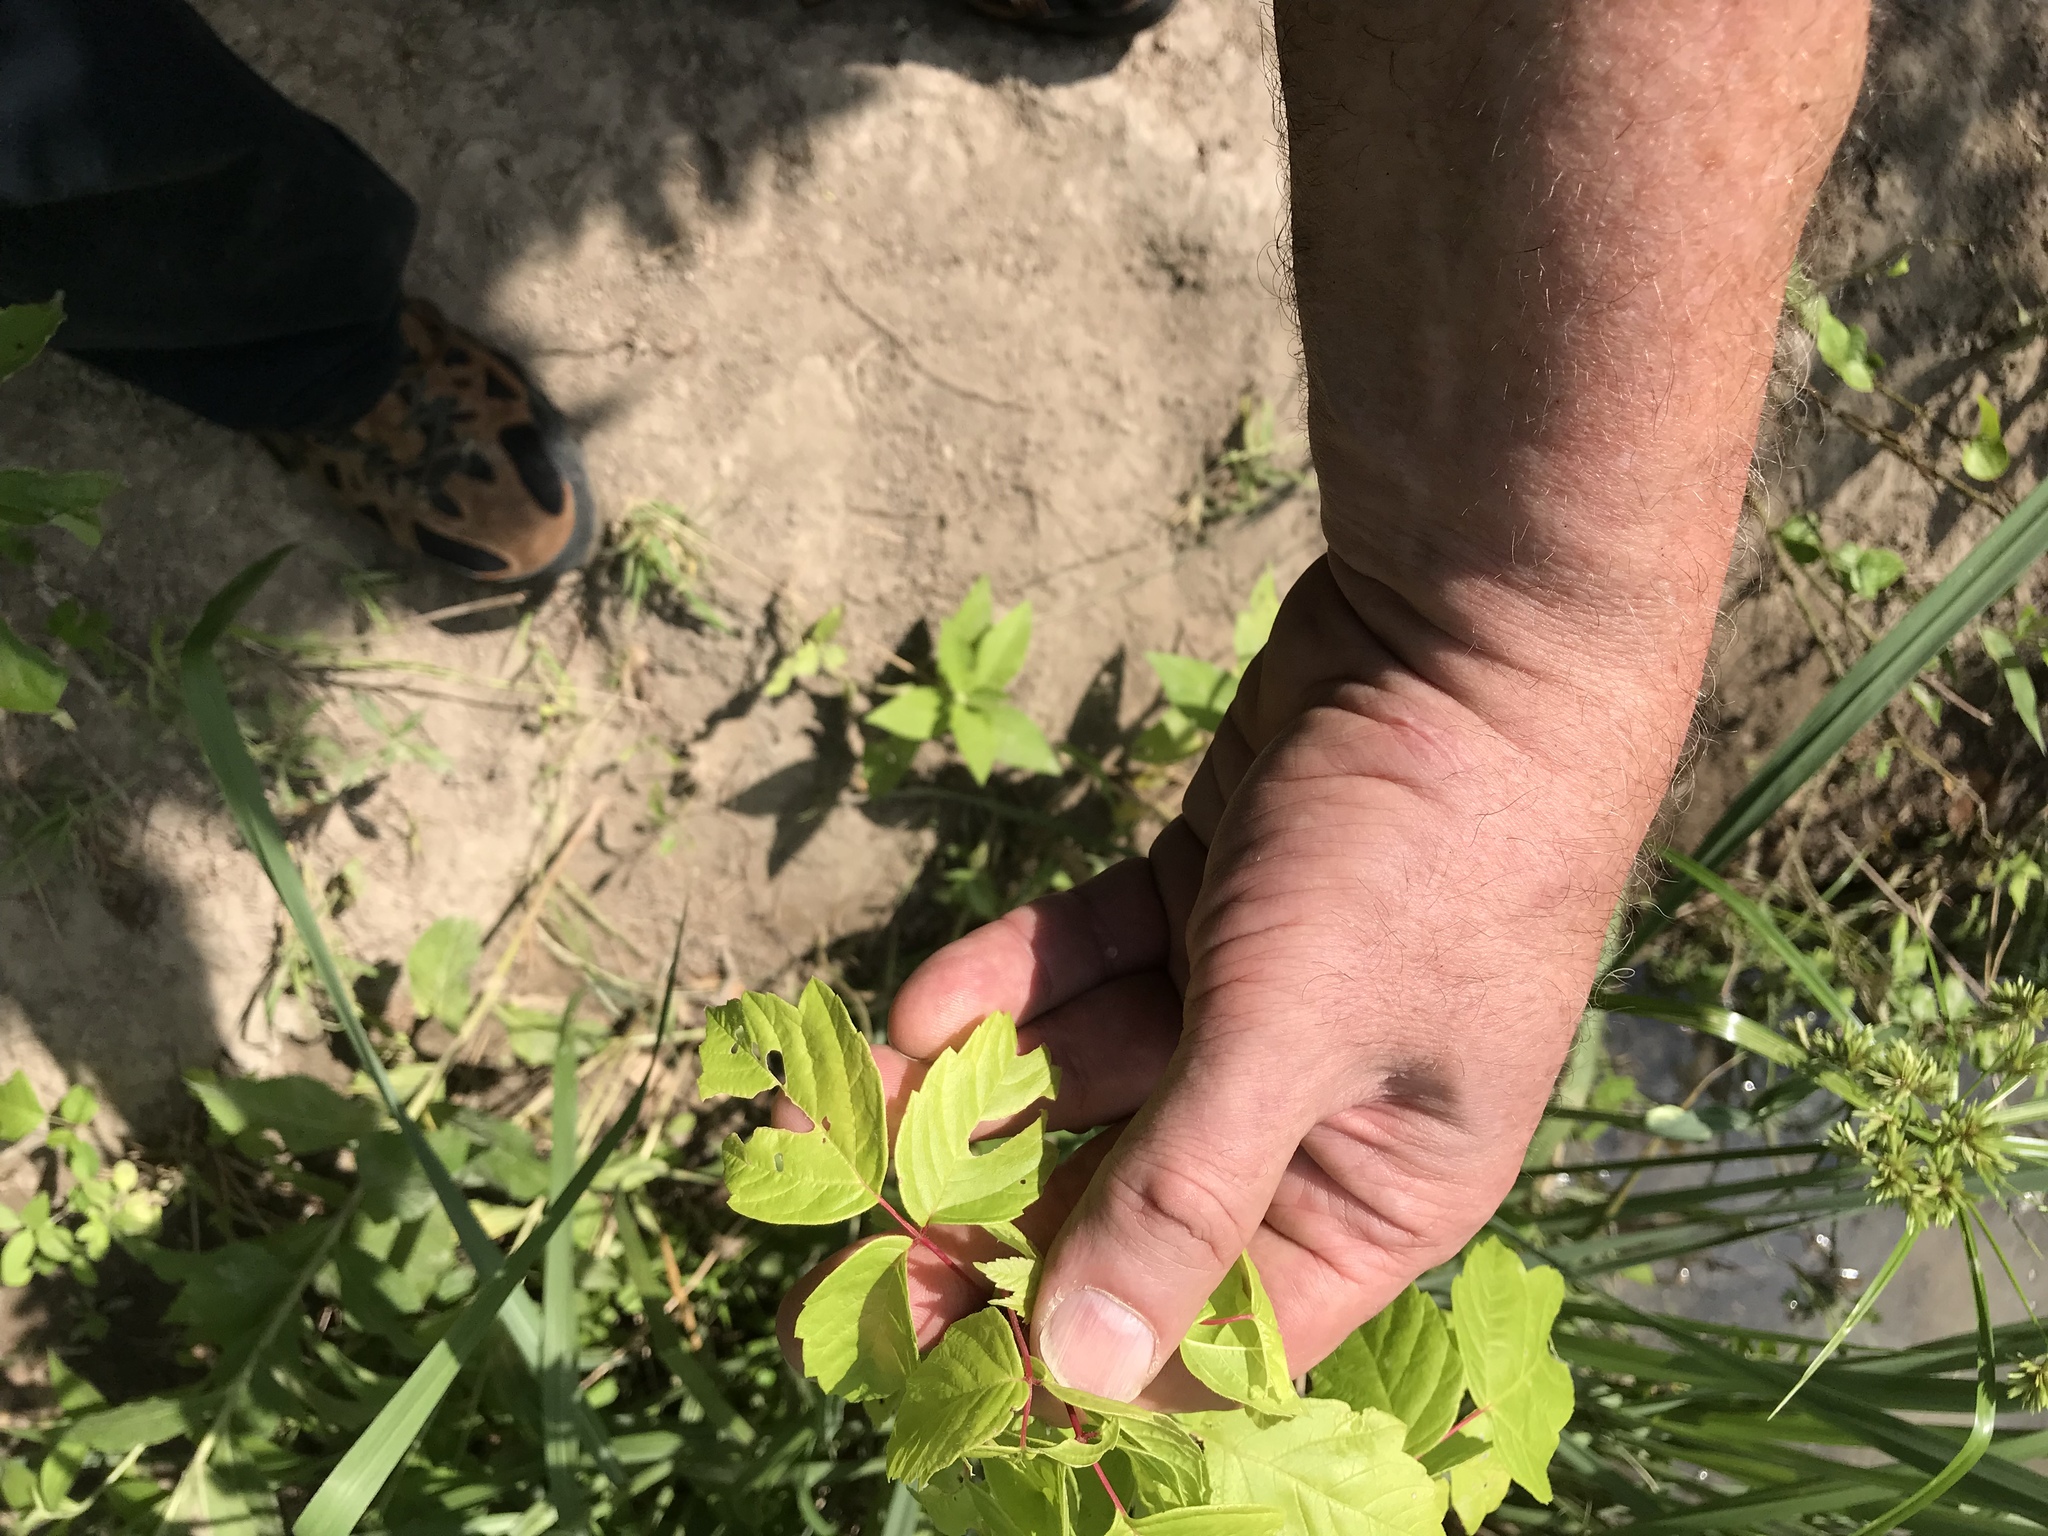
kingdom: Plantae
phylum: Tracheophyta
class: Magnoliopsida
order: Sapindales
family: Sapindaceae
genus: Acer
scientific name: Acer negundo
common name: Ashleaf maple
